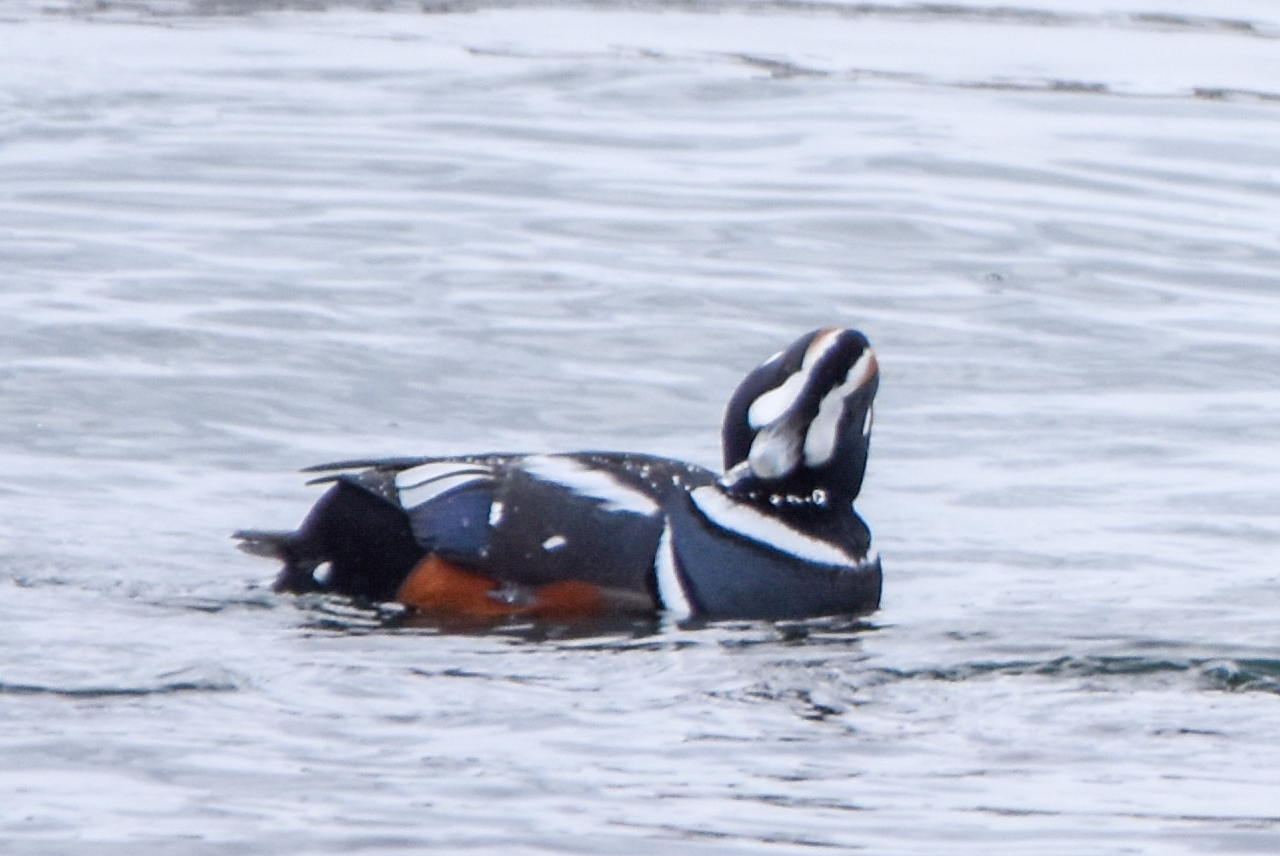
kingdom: Animalia
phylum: Chordata
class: Aves
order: Anseriformes
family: Anatidae
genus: Histrionicus
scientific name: Histrionicus histrionicus
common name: Harlequin duck
